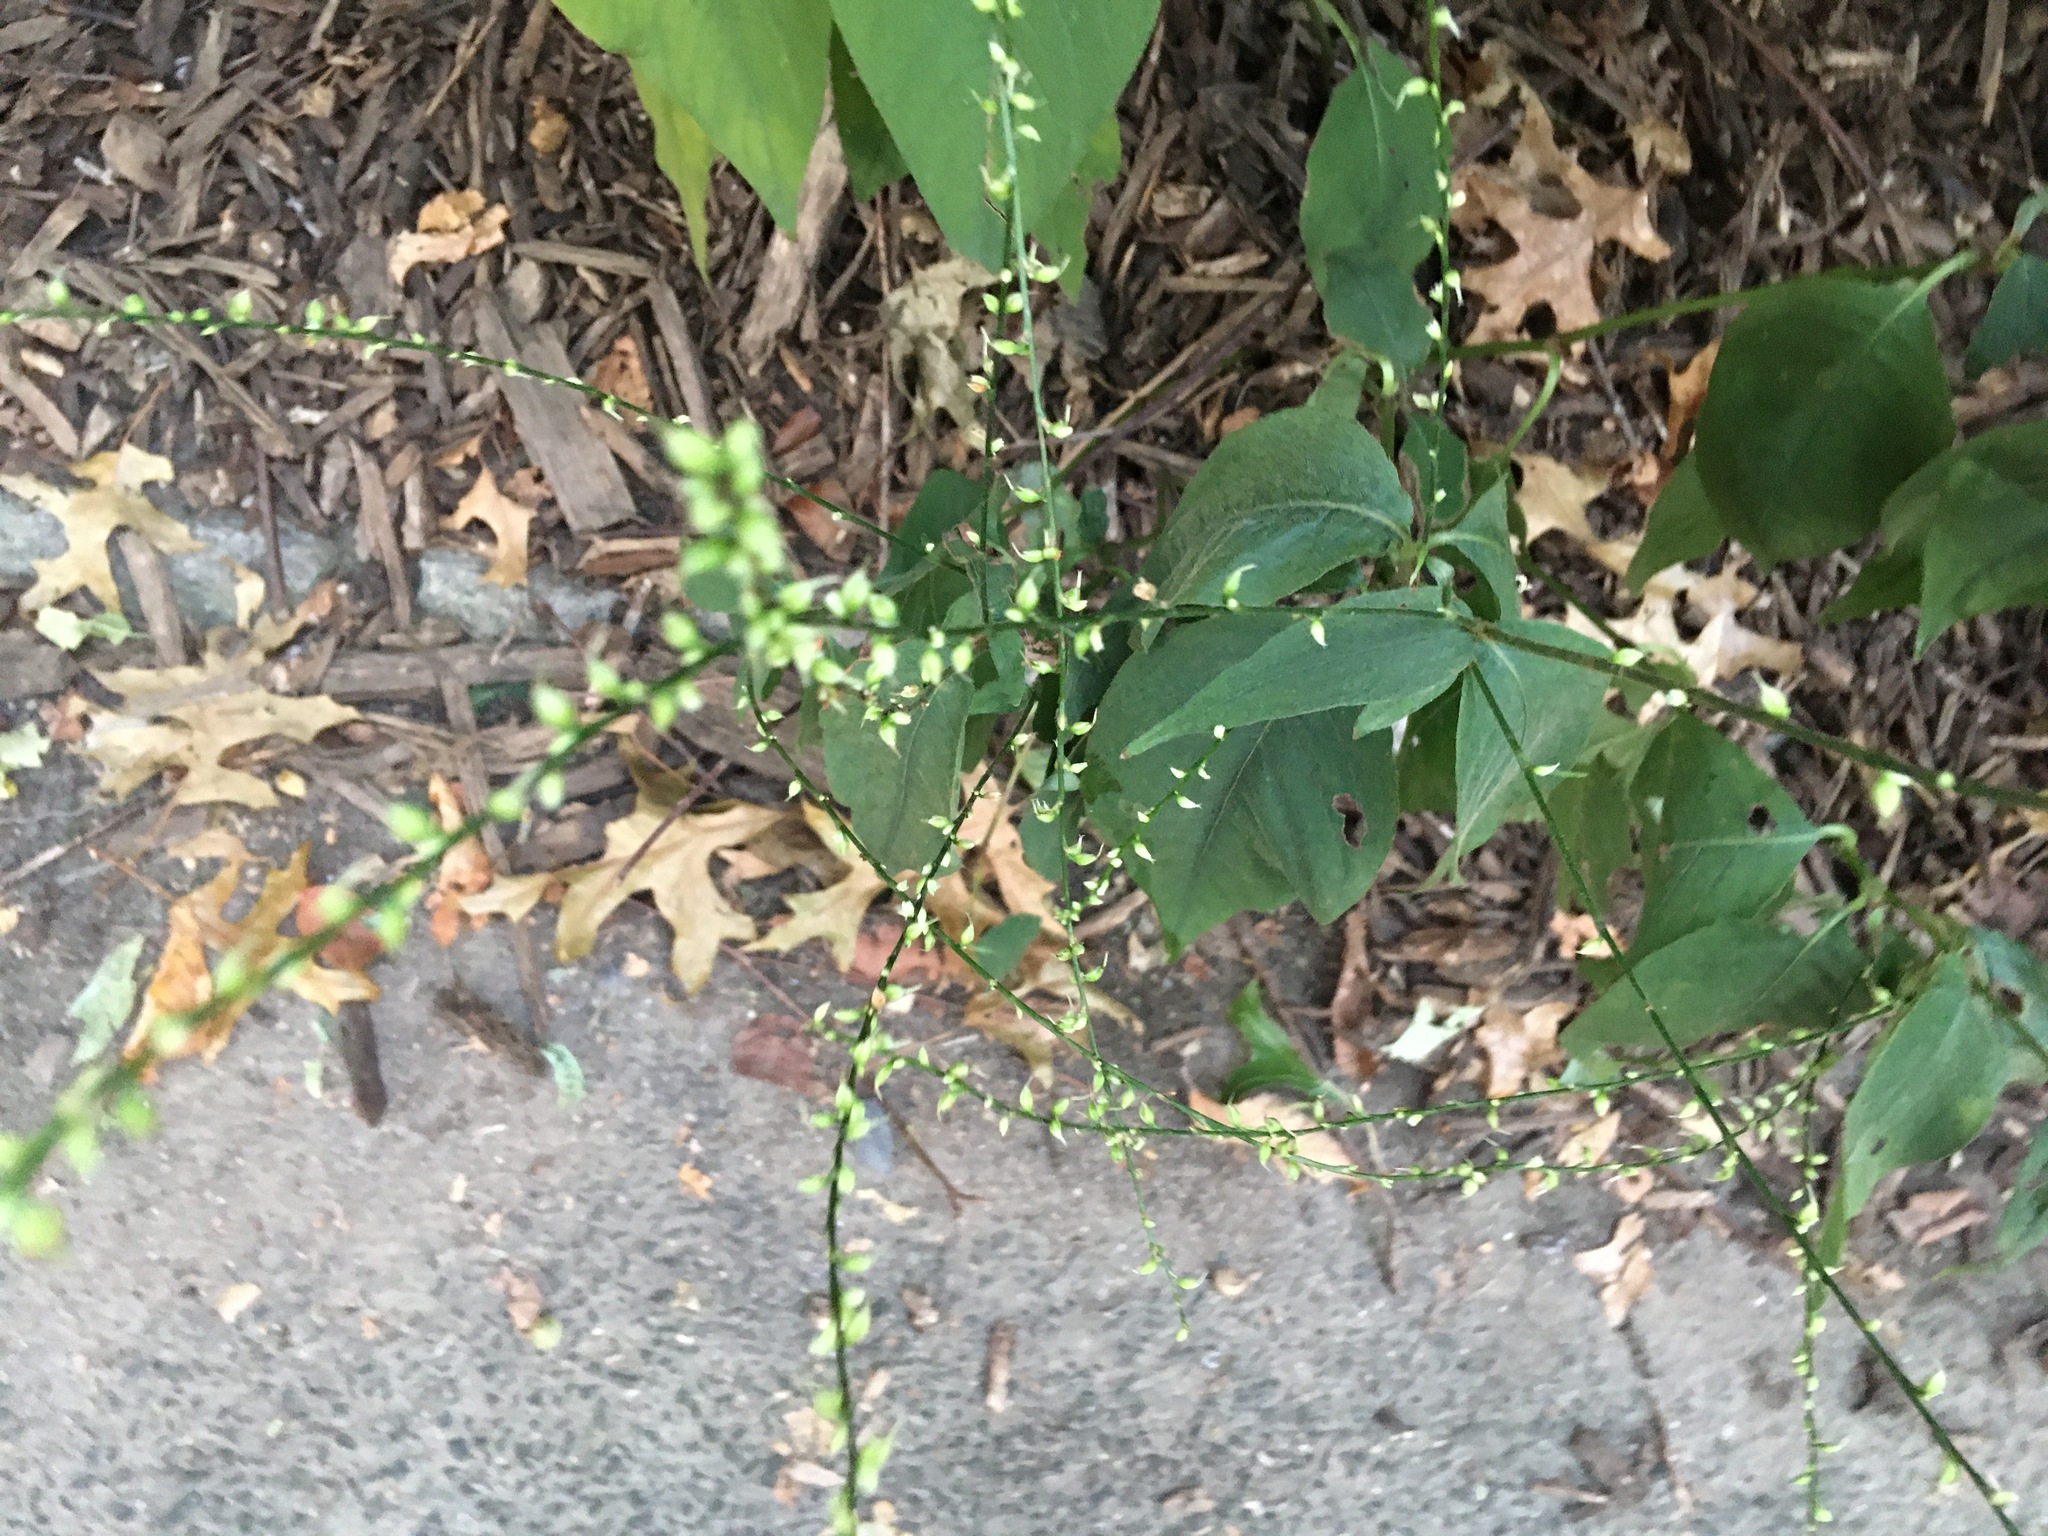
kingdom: Plantae
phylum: Tracheophyta
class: Magnoliopsida
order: Caryophyllales
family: Polygonaceae
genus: Persicaria
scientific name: Persicaria virginiana
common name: Jumpseed
